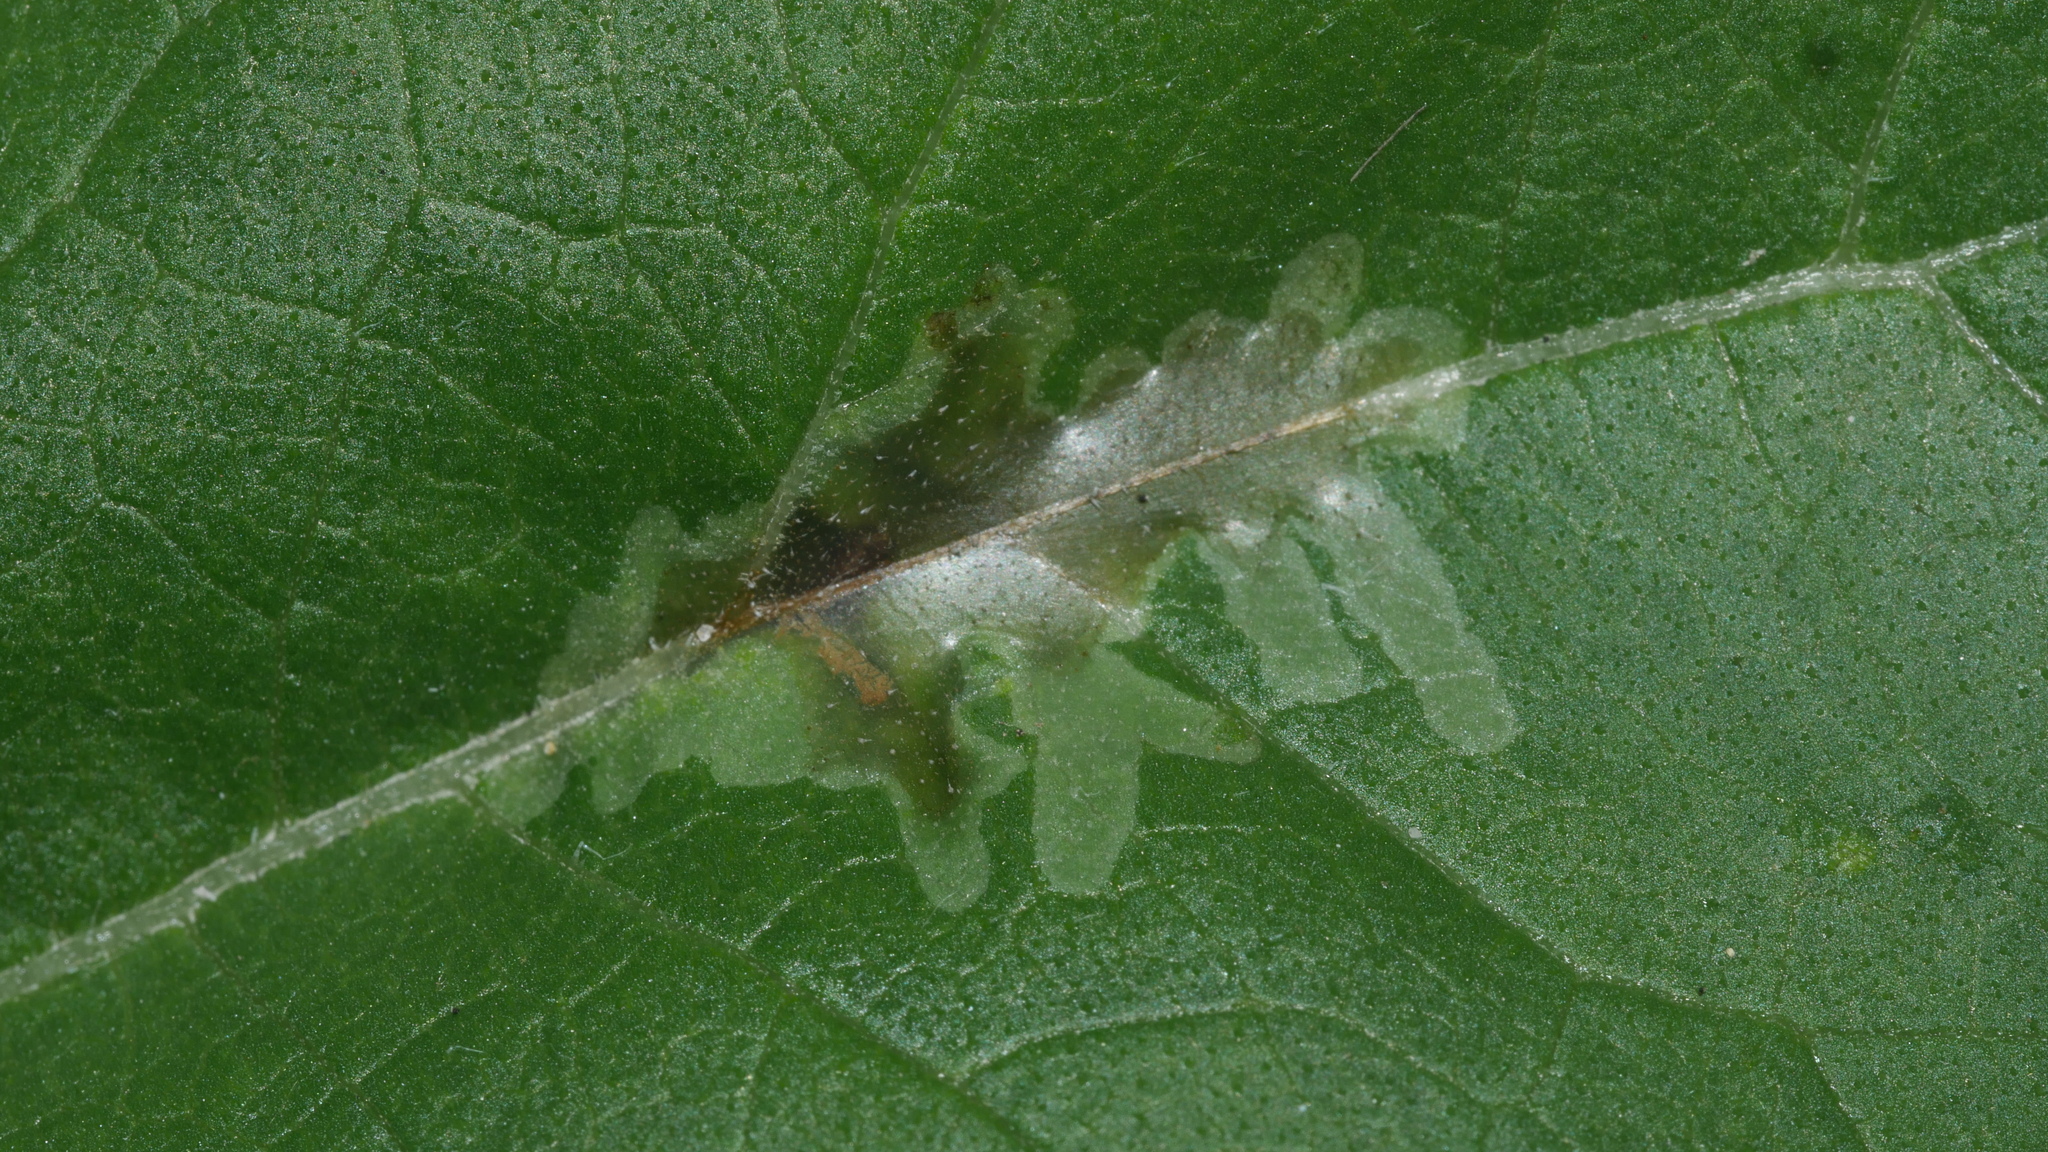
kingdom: Animalia
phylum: Arthropoda
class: Insecta
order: Diptera
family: Agromyzidae
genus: Calycomyza
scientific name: Calycomyza platyptera
